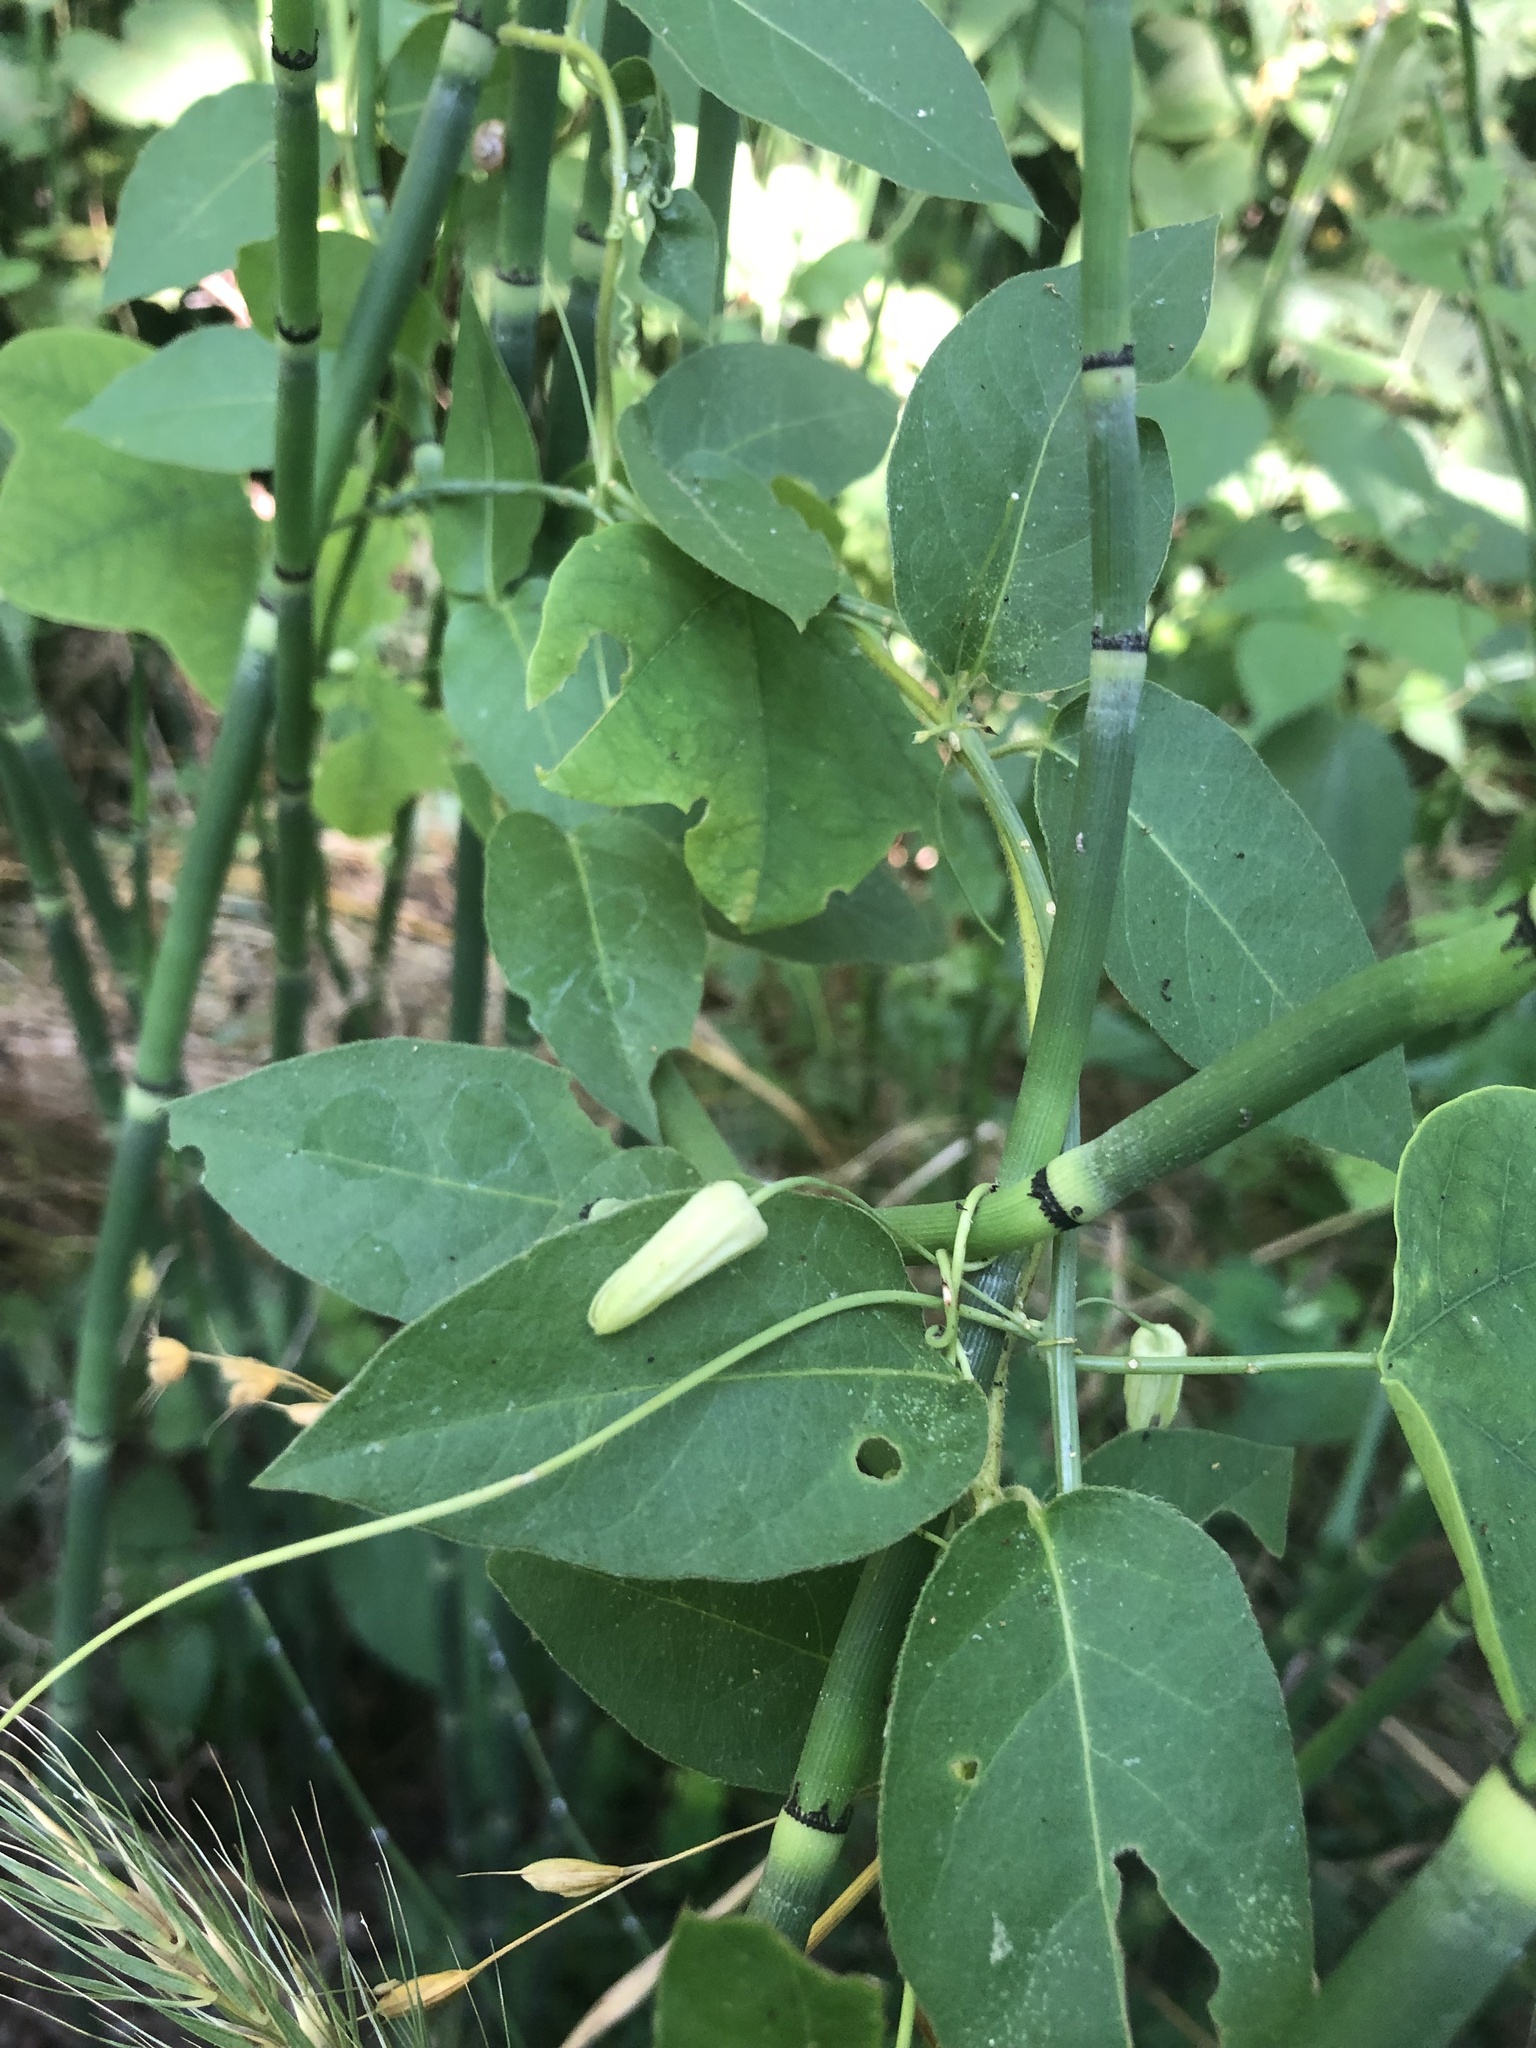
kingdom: Plantae
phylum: Tracheophyta
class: Magnoliopsida
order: Malpighiales
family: Passifloraceae
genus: Passiflora
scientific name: Passiflora lutea
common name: Yellow passionflower
